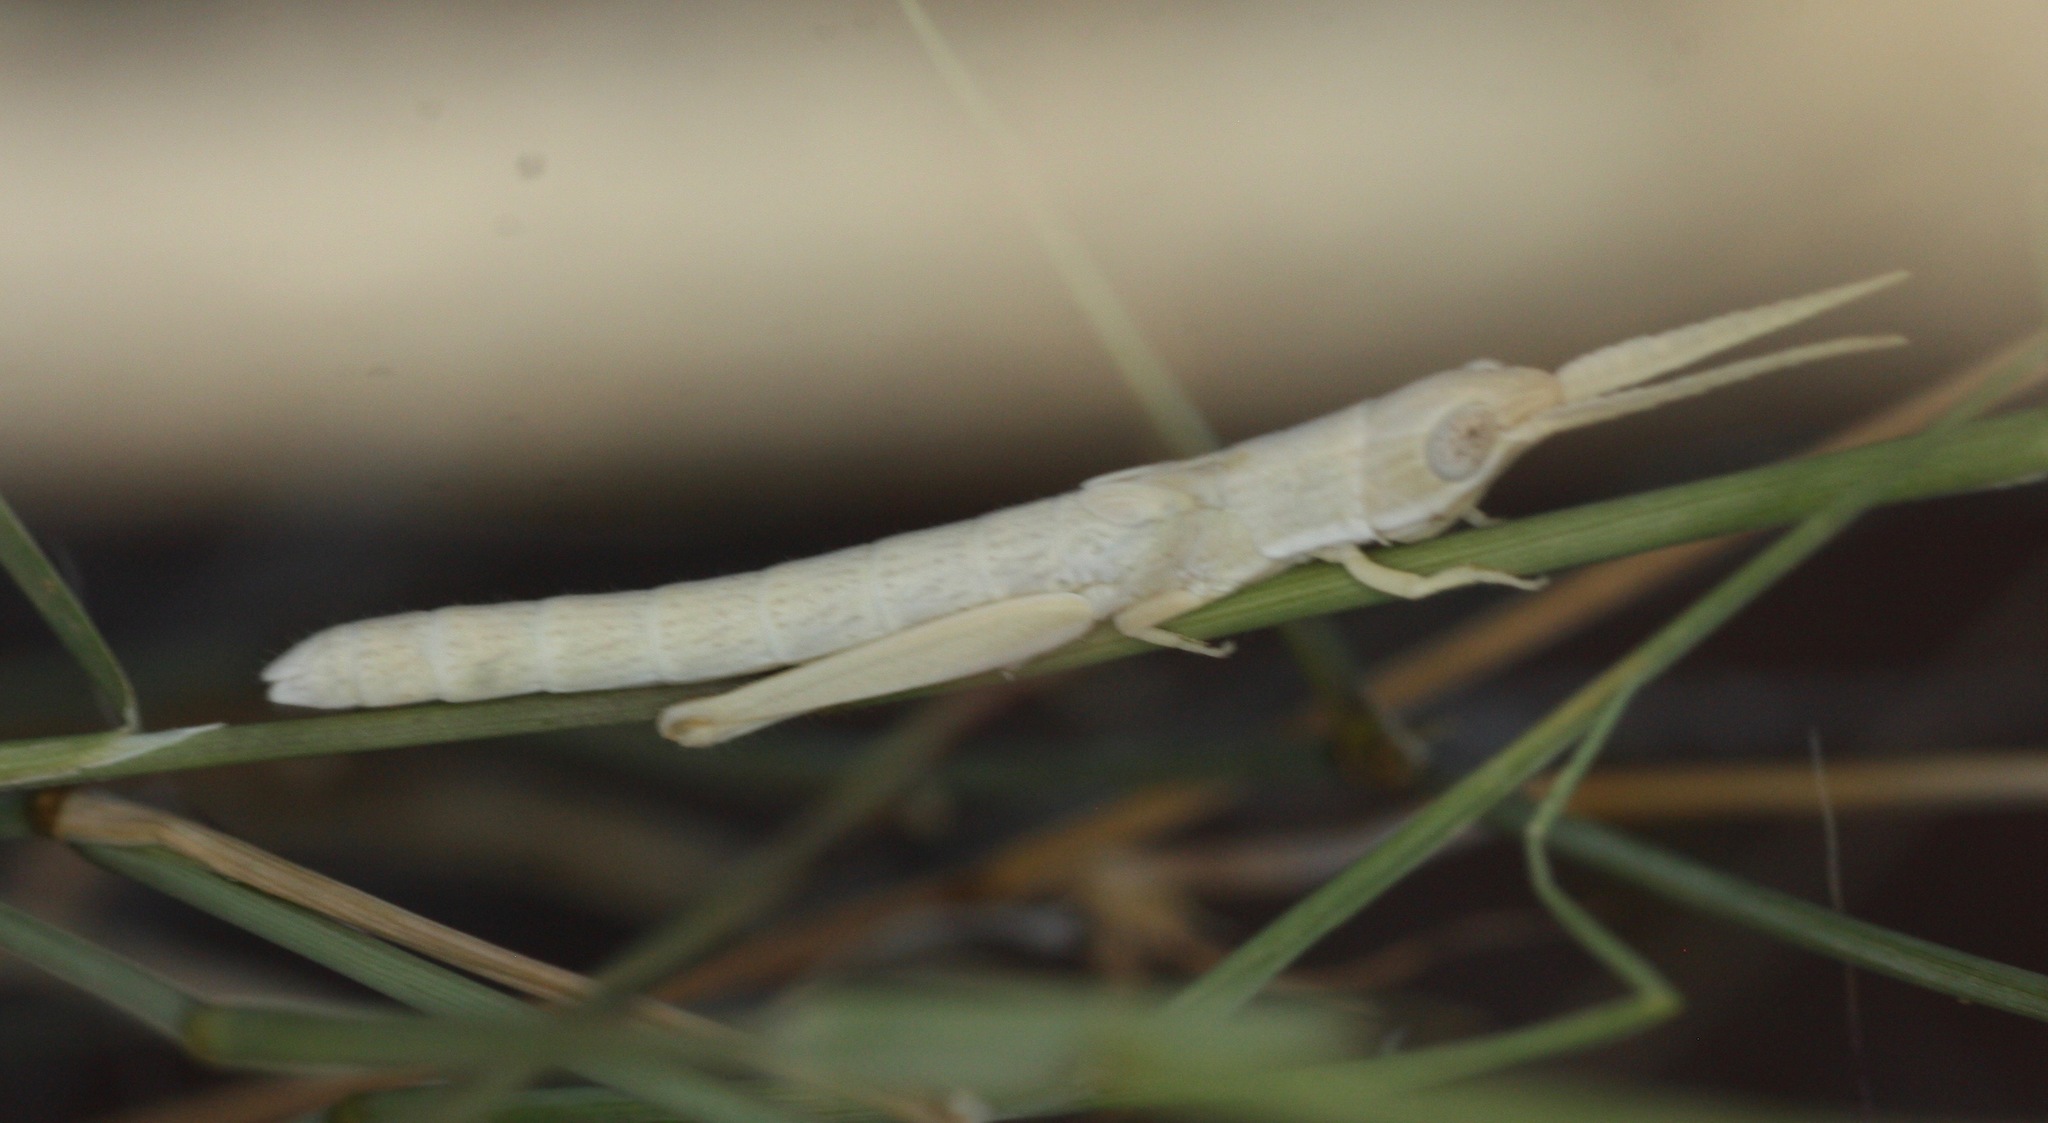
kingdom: Animalia
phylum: Arthropoda
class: Insecta
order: Orthoptera
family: Acrididae
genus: Paropomala
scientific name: Paropomala wyomingensis
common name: Wyoming toothpick grasshopper
